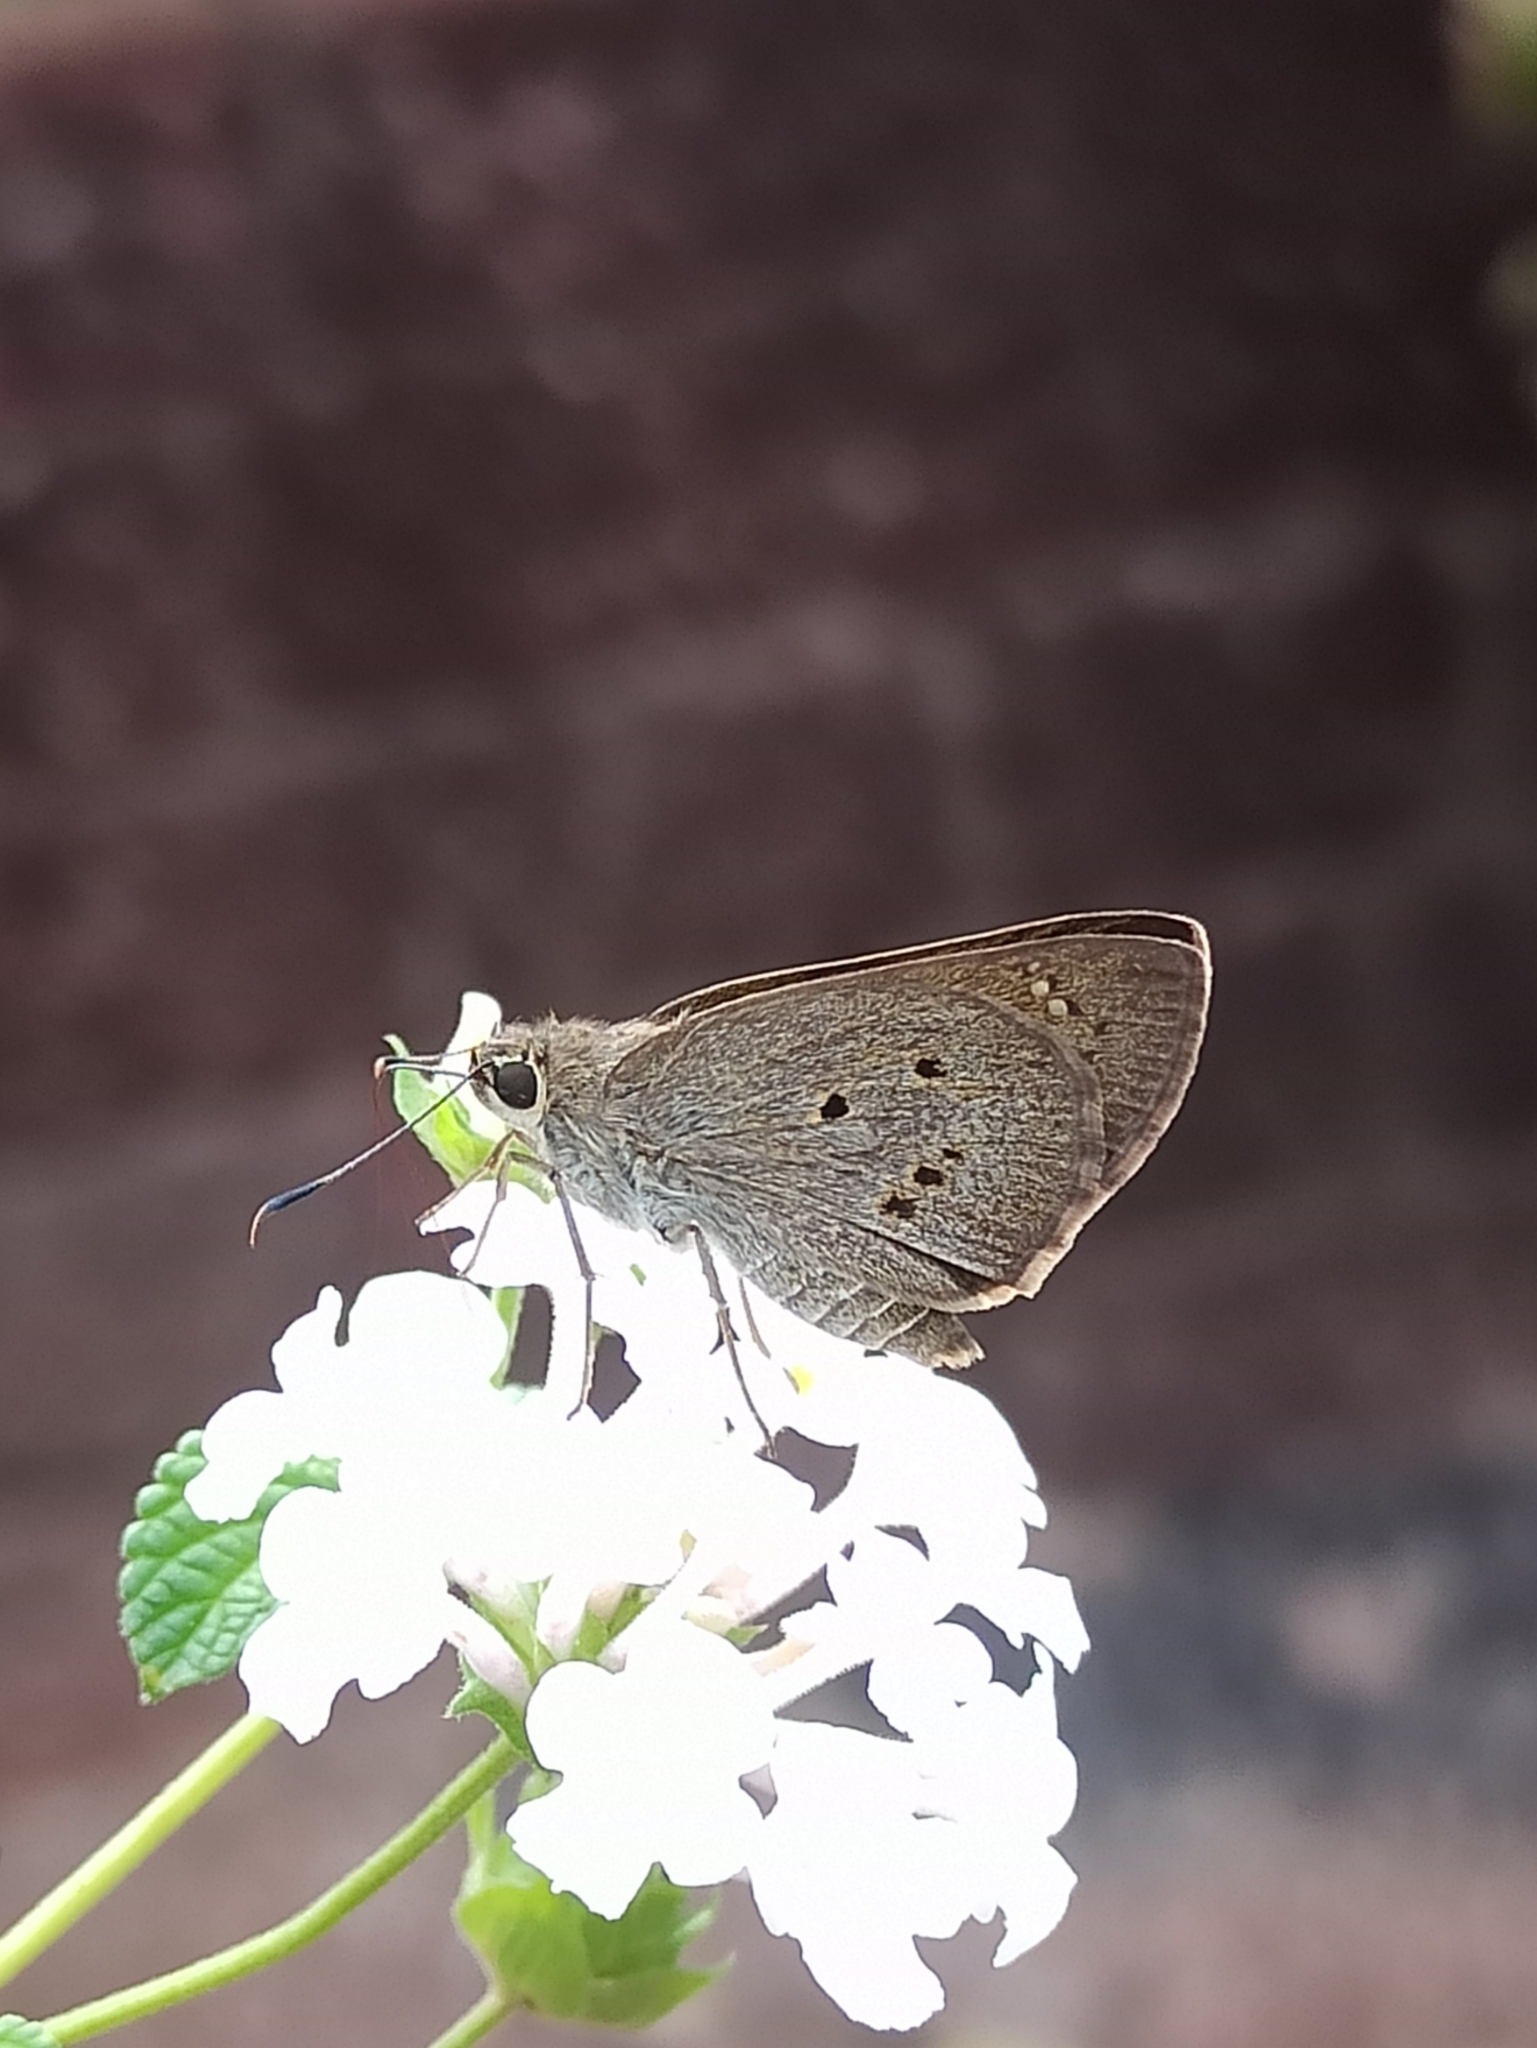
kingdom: Animalia
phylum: Arthropoda
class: Insecta
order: Lepidoptera
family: Hesperiidae
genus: Suastus
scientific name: Suastus gremius
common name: Indian palm bob
